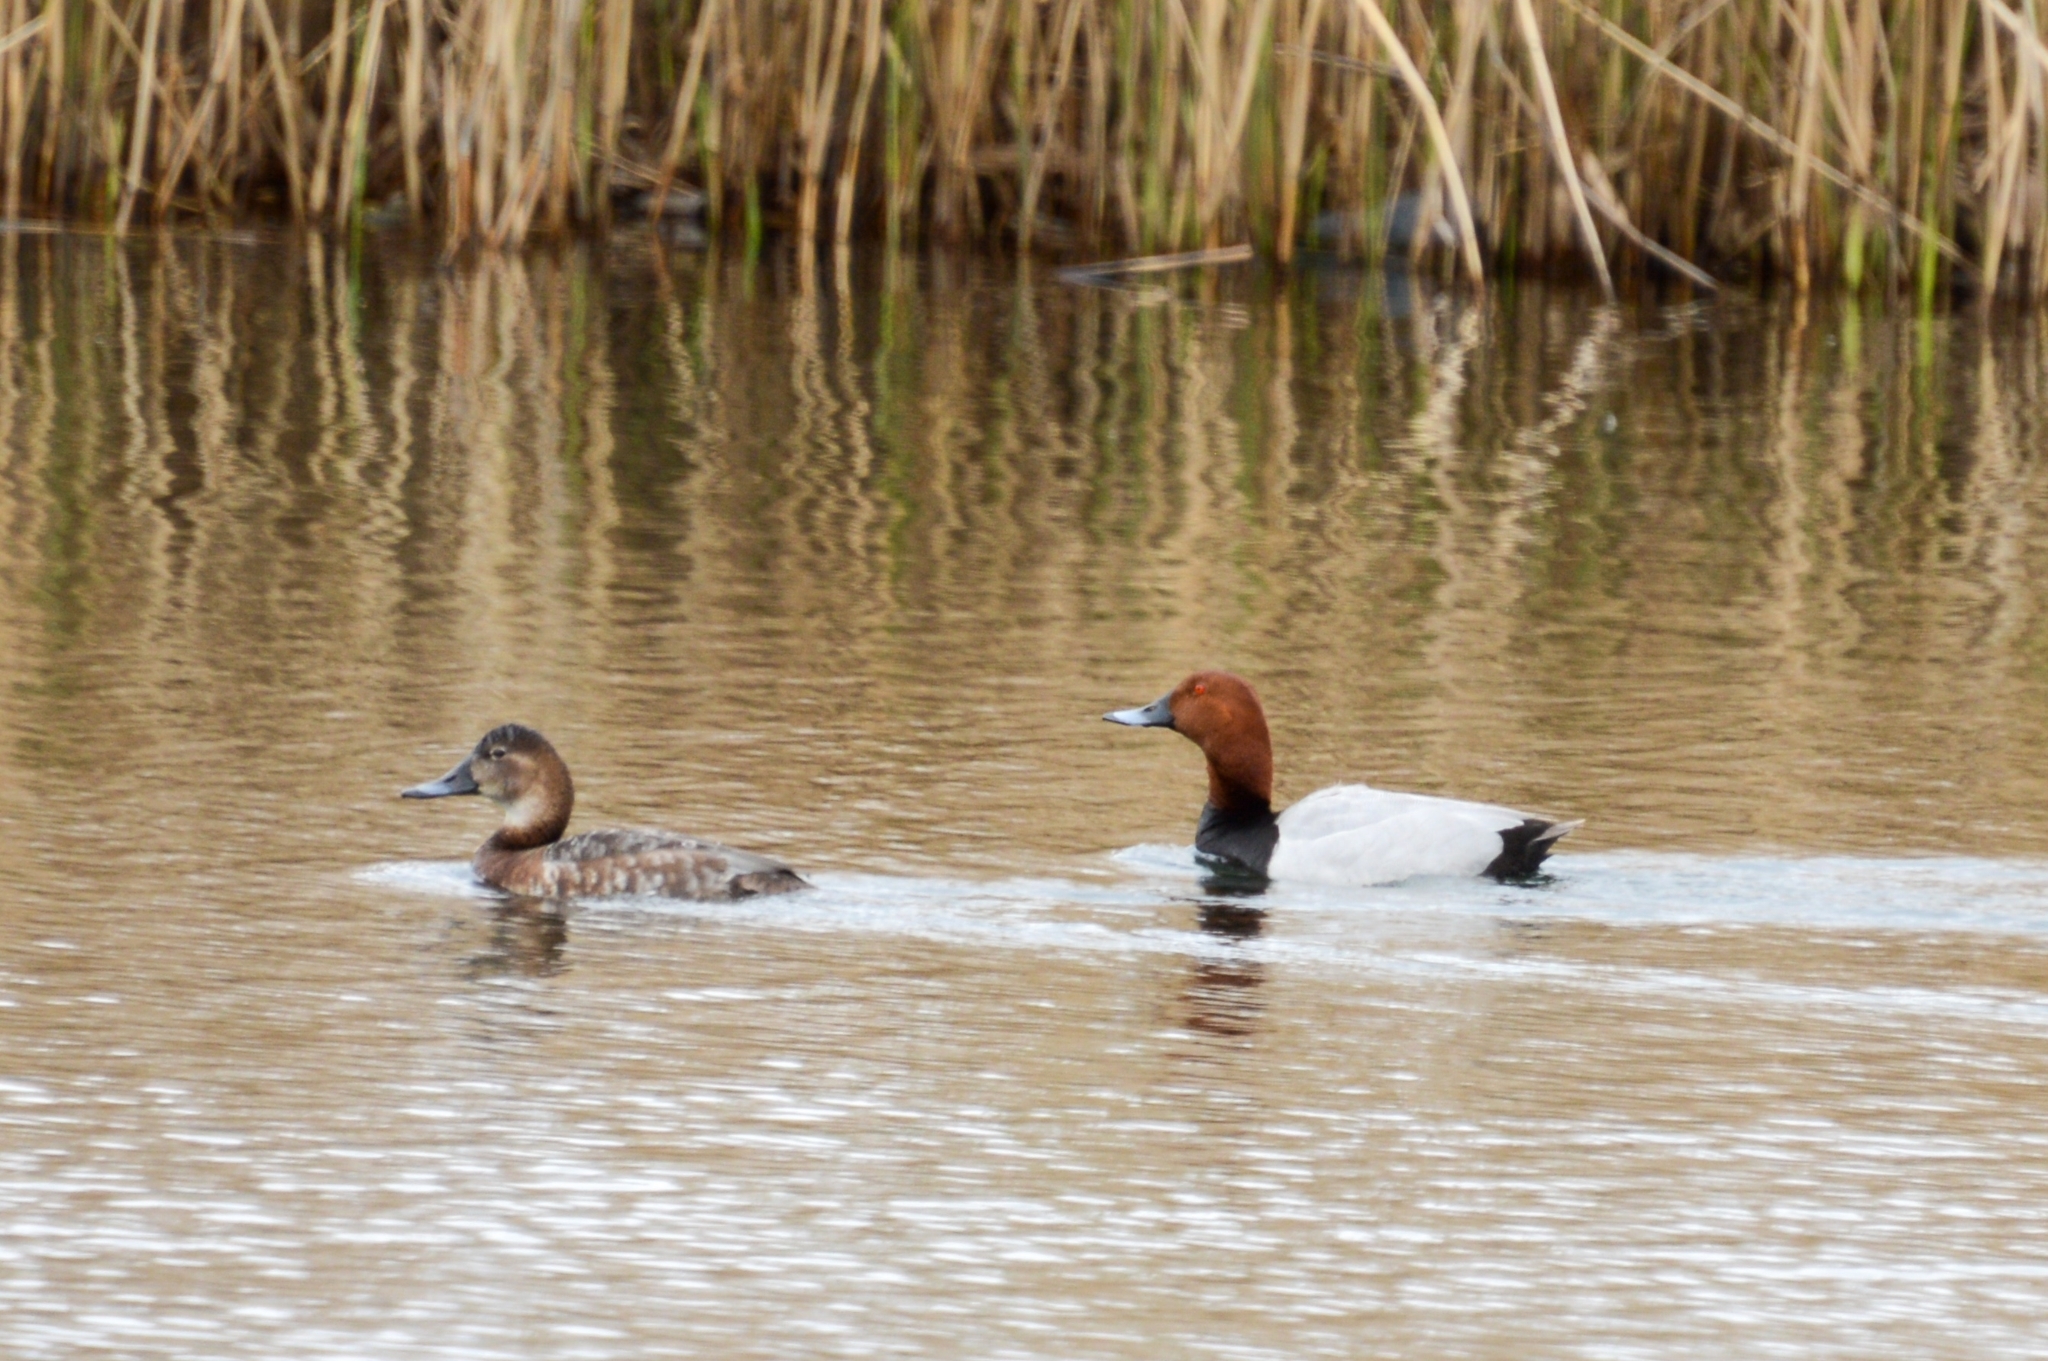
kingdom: Animalia
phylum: Chordata
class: Aves
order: Anseriformes
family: Anatidae
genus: Aythya
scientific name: Aythya ferina
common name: Common pochard
